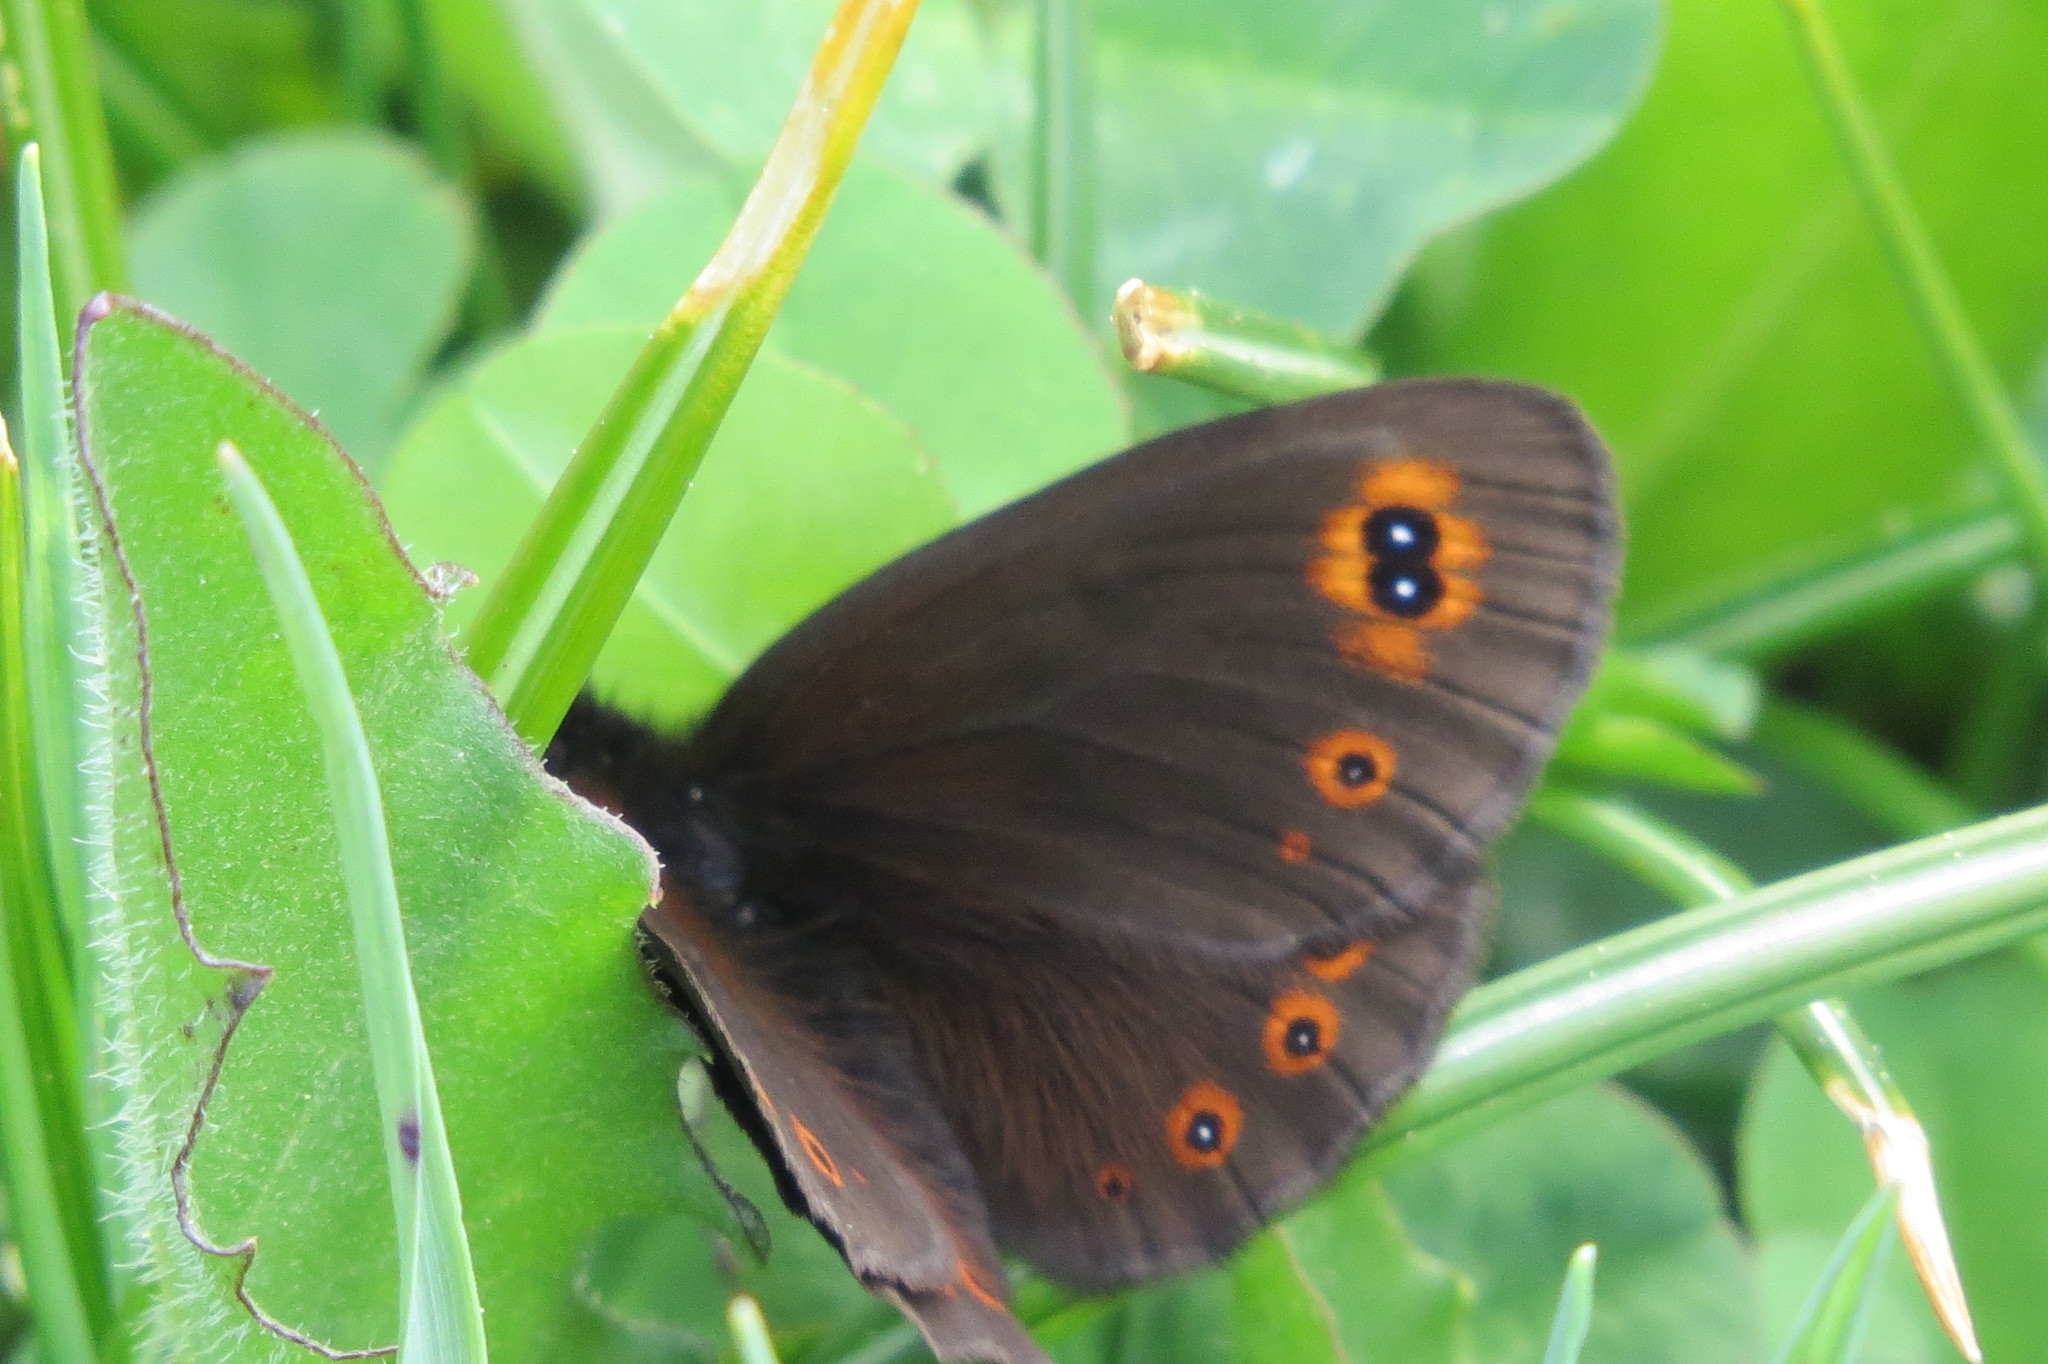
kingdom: Animalia
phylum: Arthropoda
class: Insecta
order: Lepidoptera
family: Nymphalidae
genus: Erebia
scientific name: Erebia medusa
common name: Woodland ringlet
